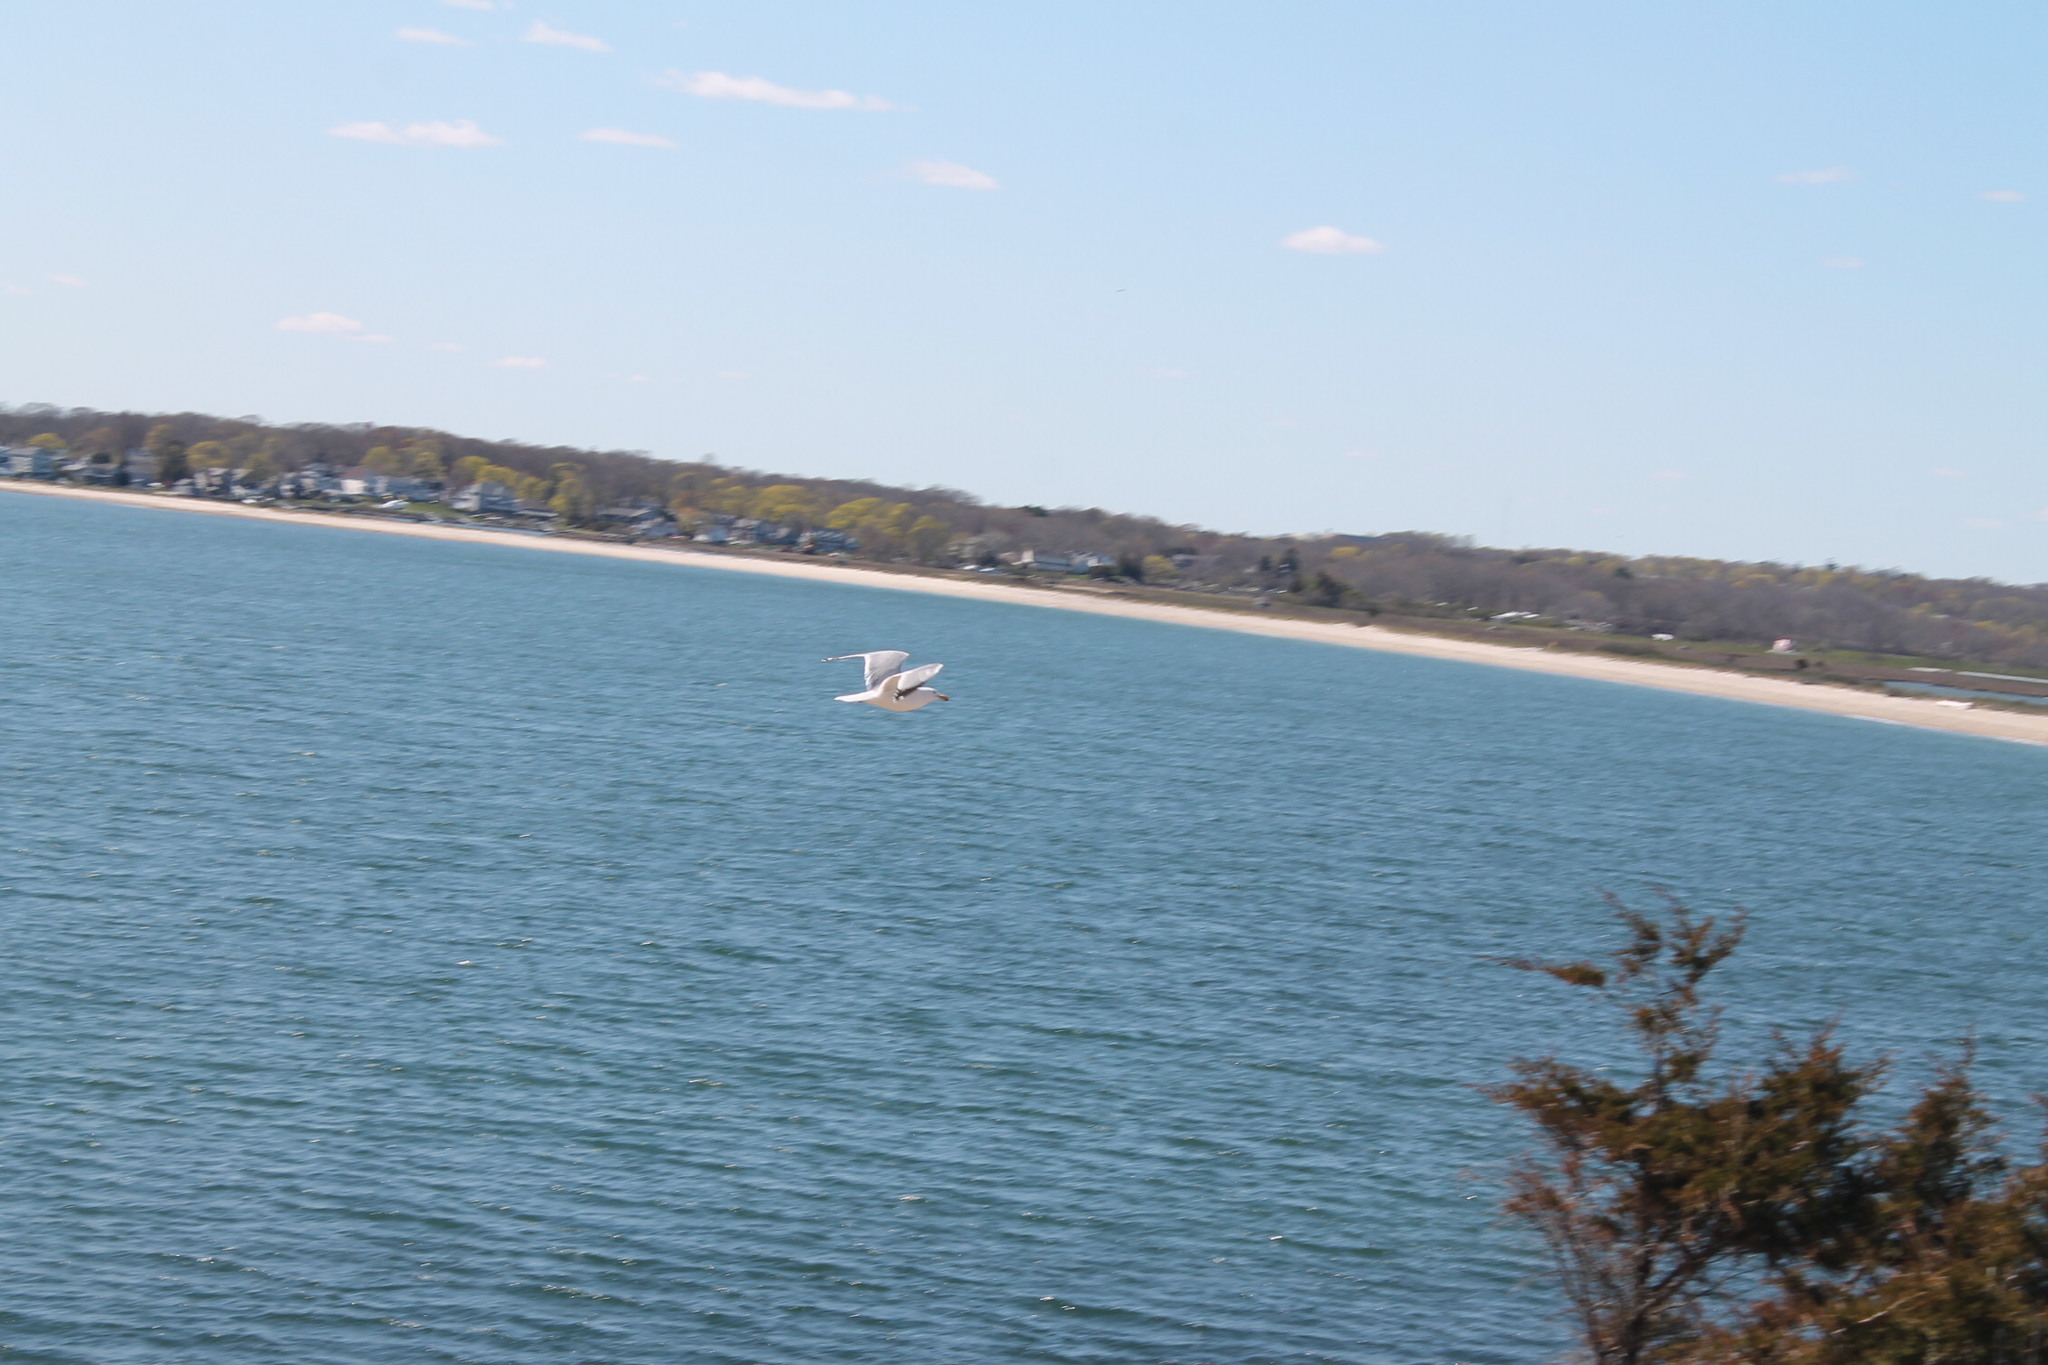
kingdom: Animalia
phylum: Chordata
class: Aves
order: Charadriiformes
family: Laridae
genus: Larus
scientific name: Larus argentatus
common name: Herring gull
